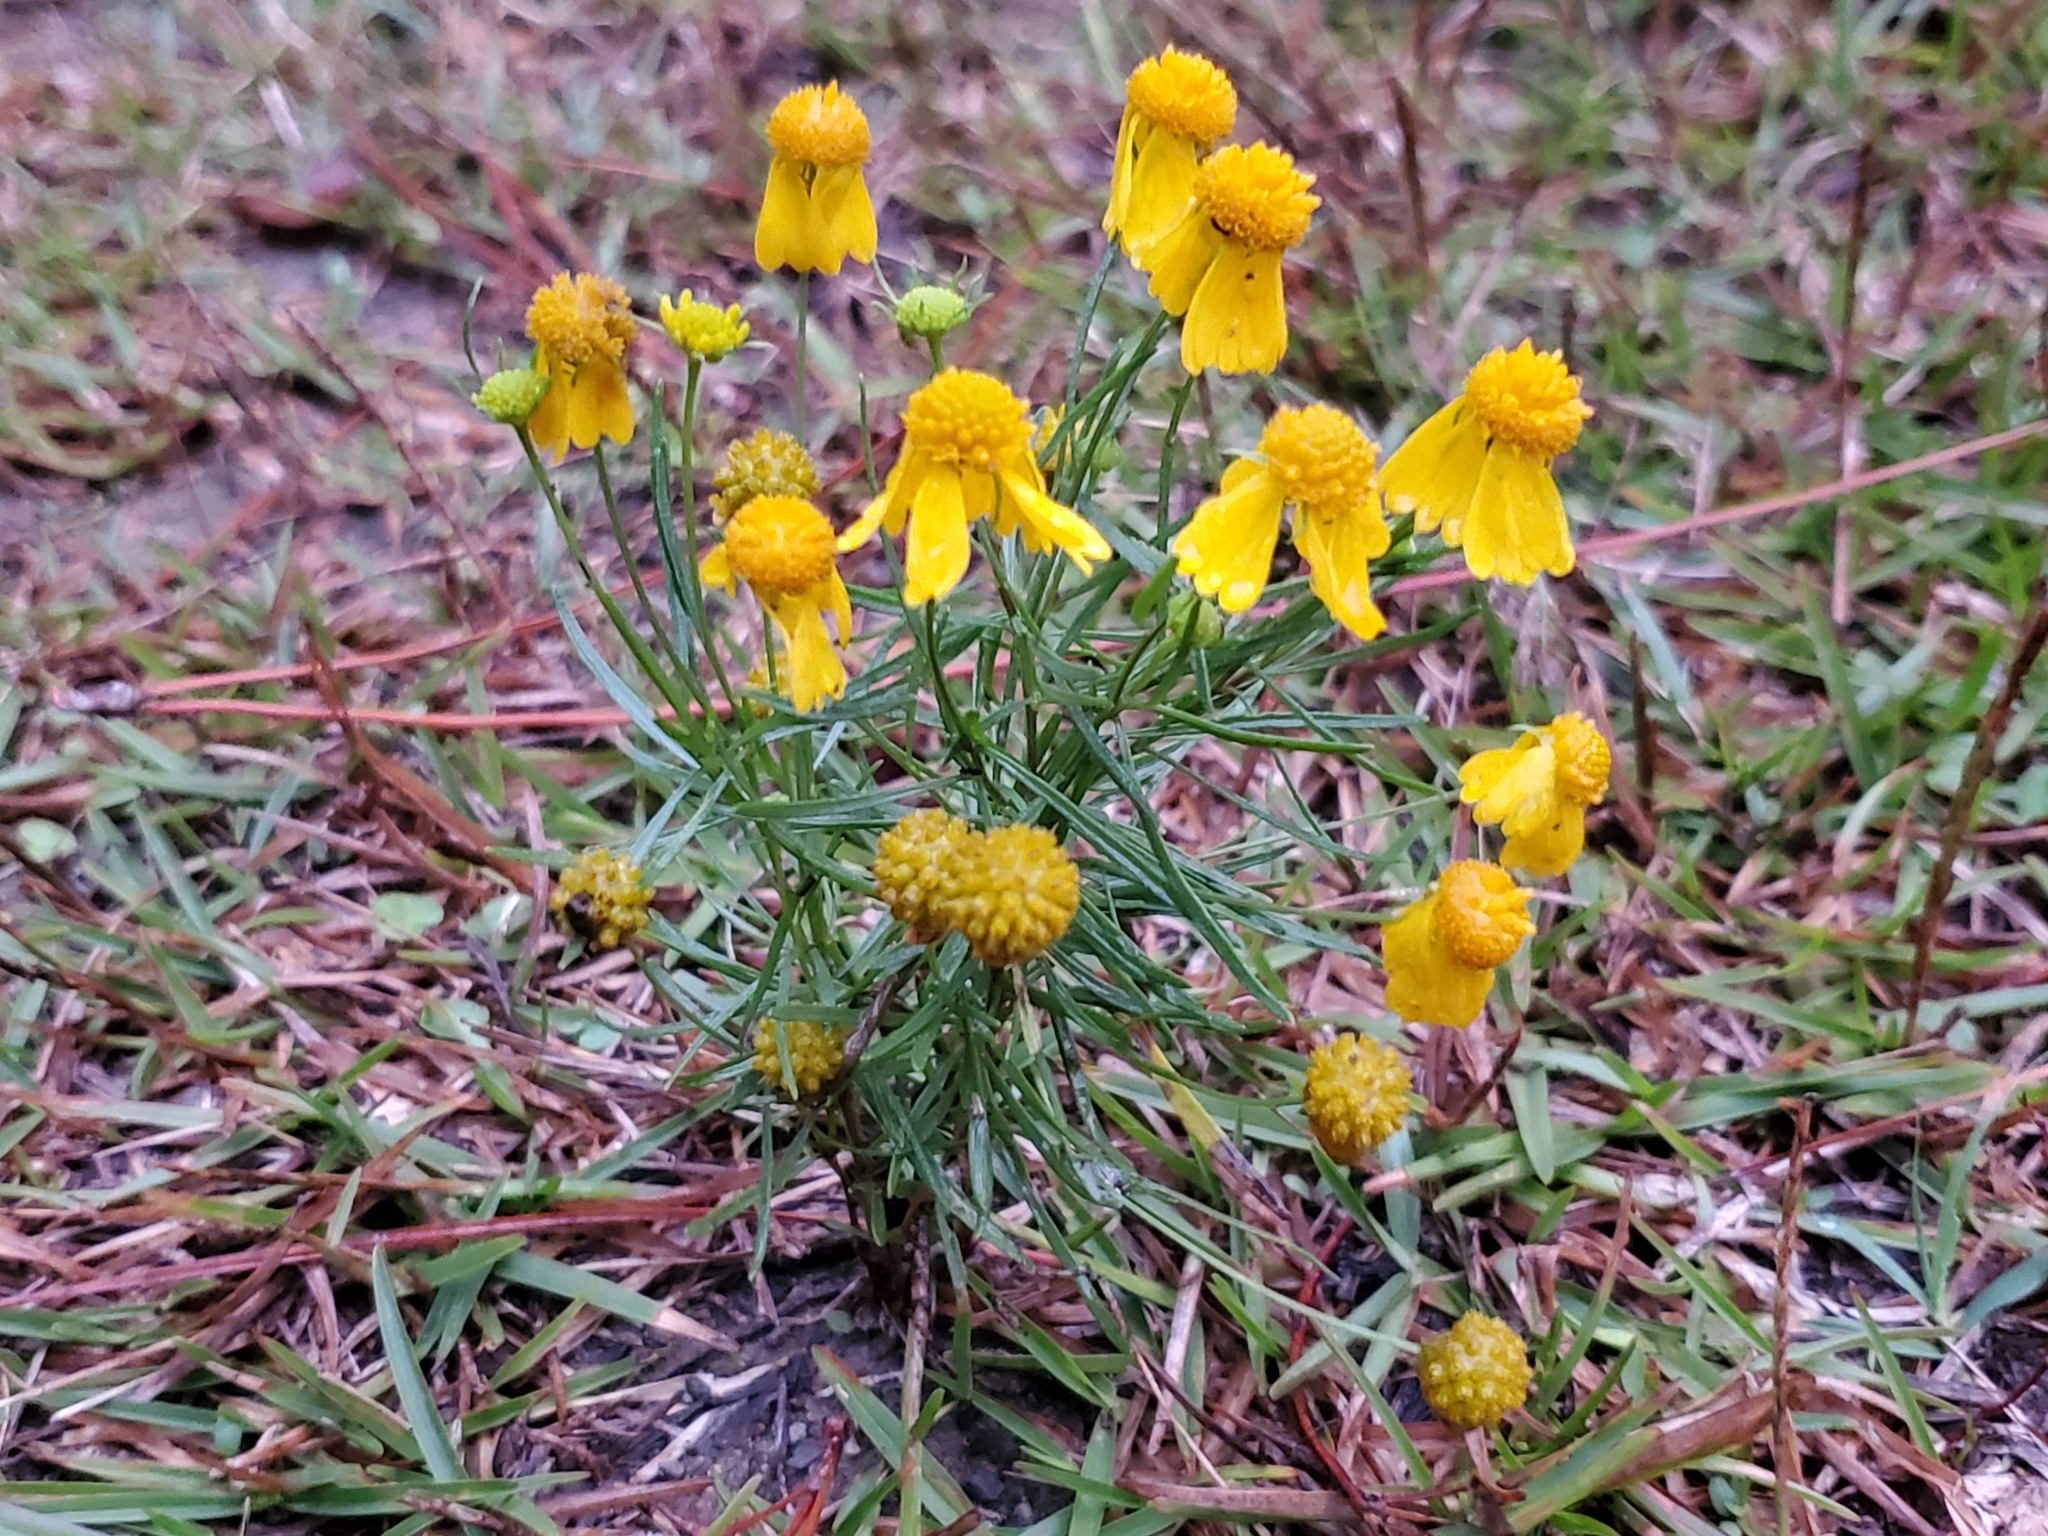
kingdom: Plantae
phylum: Tracheophyta
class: Magnoliopsida
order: Asterales
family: Asteraceae
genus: Helenium
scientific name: Helenium amarum
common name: Bitter sneezeweed
